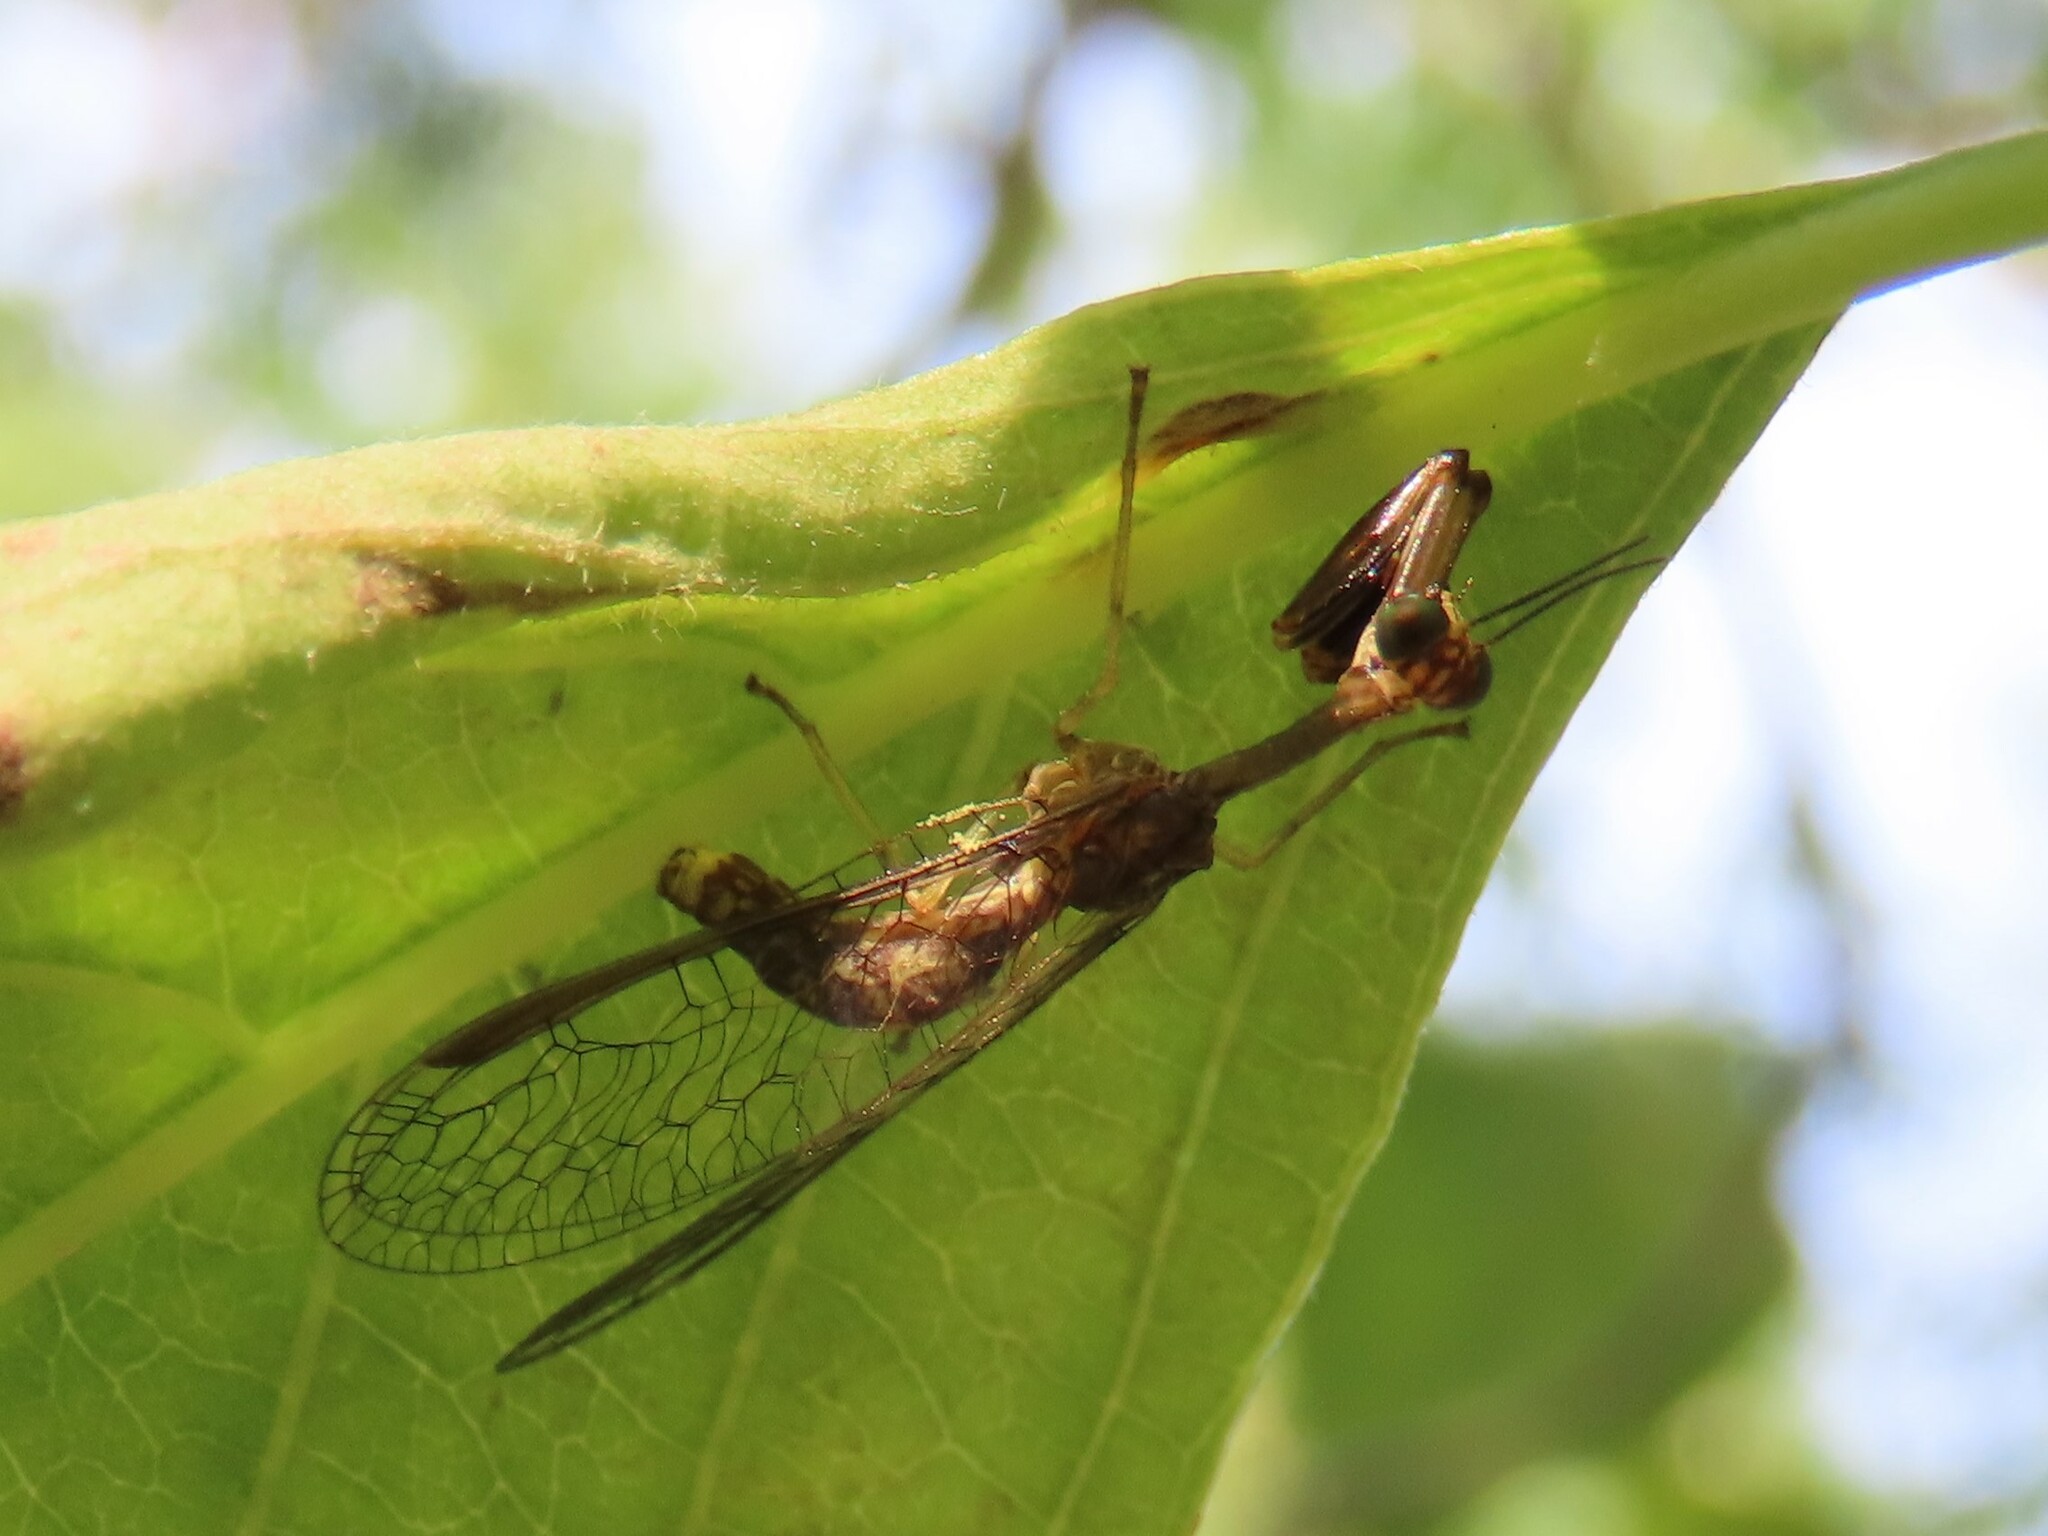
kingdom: Animalia
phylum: Arthropoda
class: Insecta
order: Neuroptera
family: Mantispidae
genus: Dicromantispa
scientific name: Dicromantispa sayi
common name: Say's mantidfly
